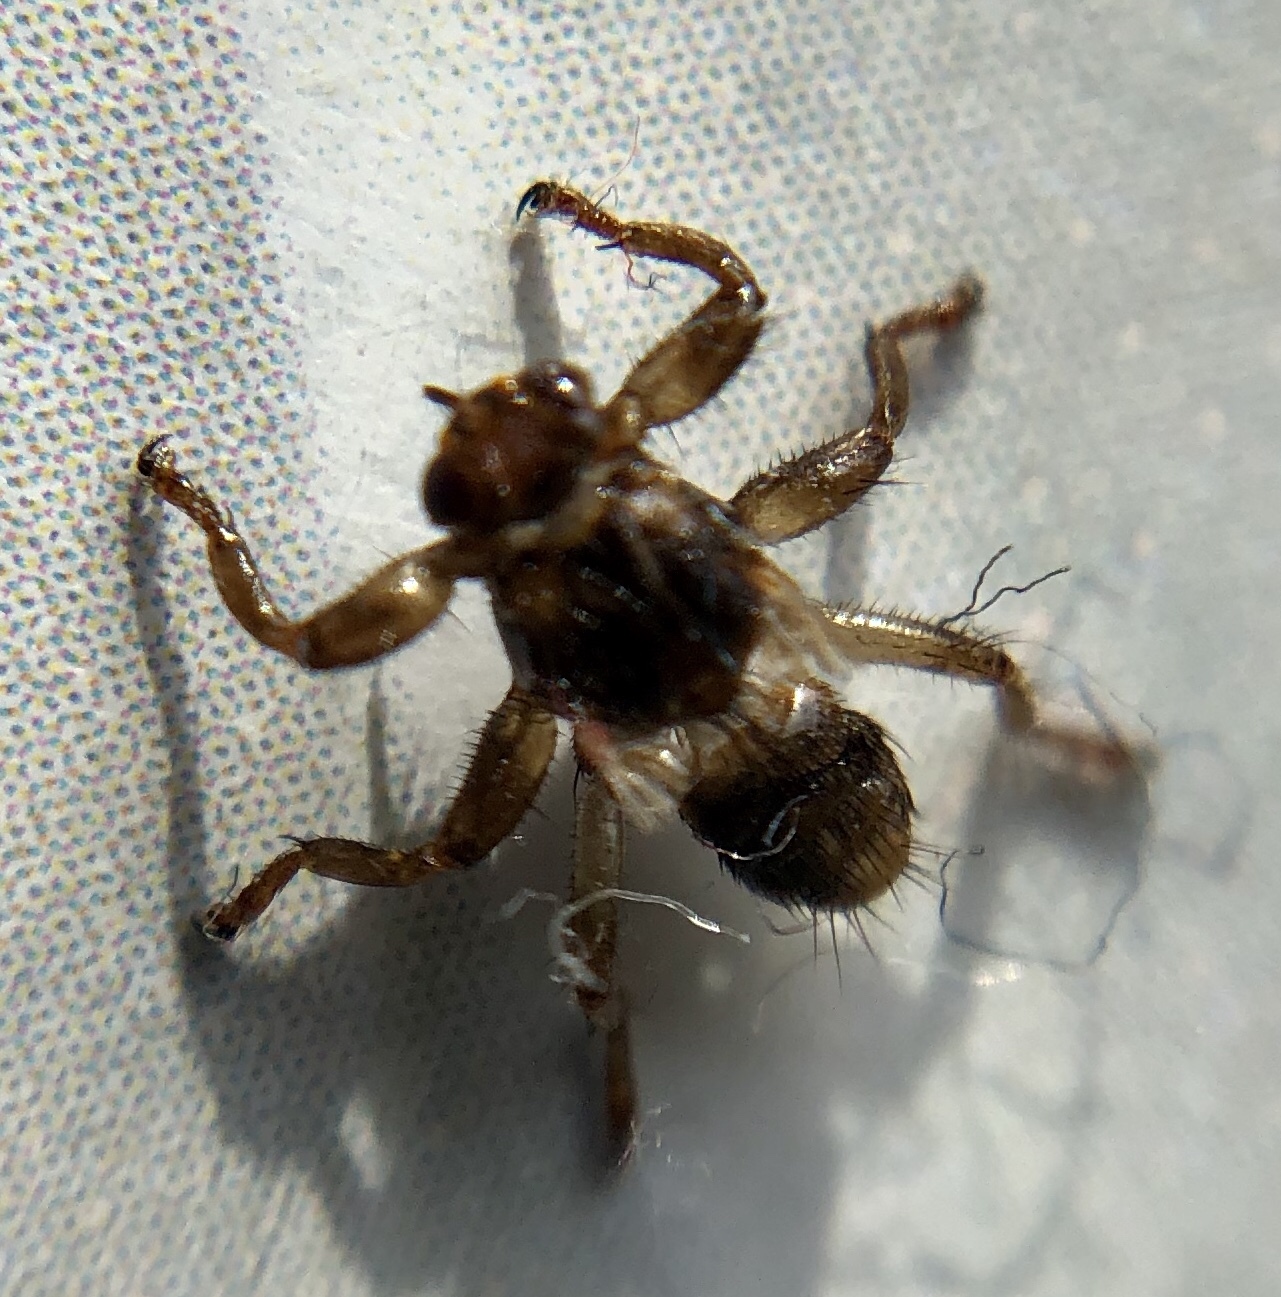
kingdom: Animalia
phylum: Arthropoda
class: Insecta
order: Diptera
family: Hippoboscidae
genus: Lipoptena
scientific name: Lipoptena cervi
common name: Deer ked
